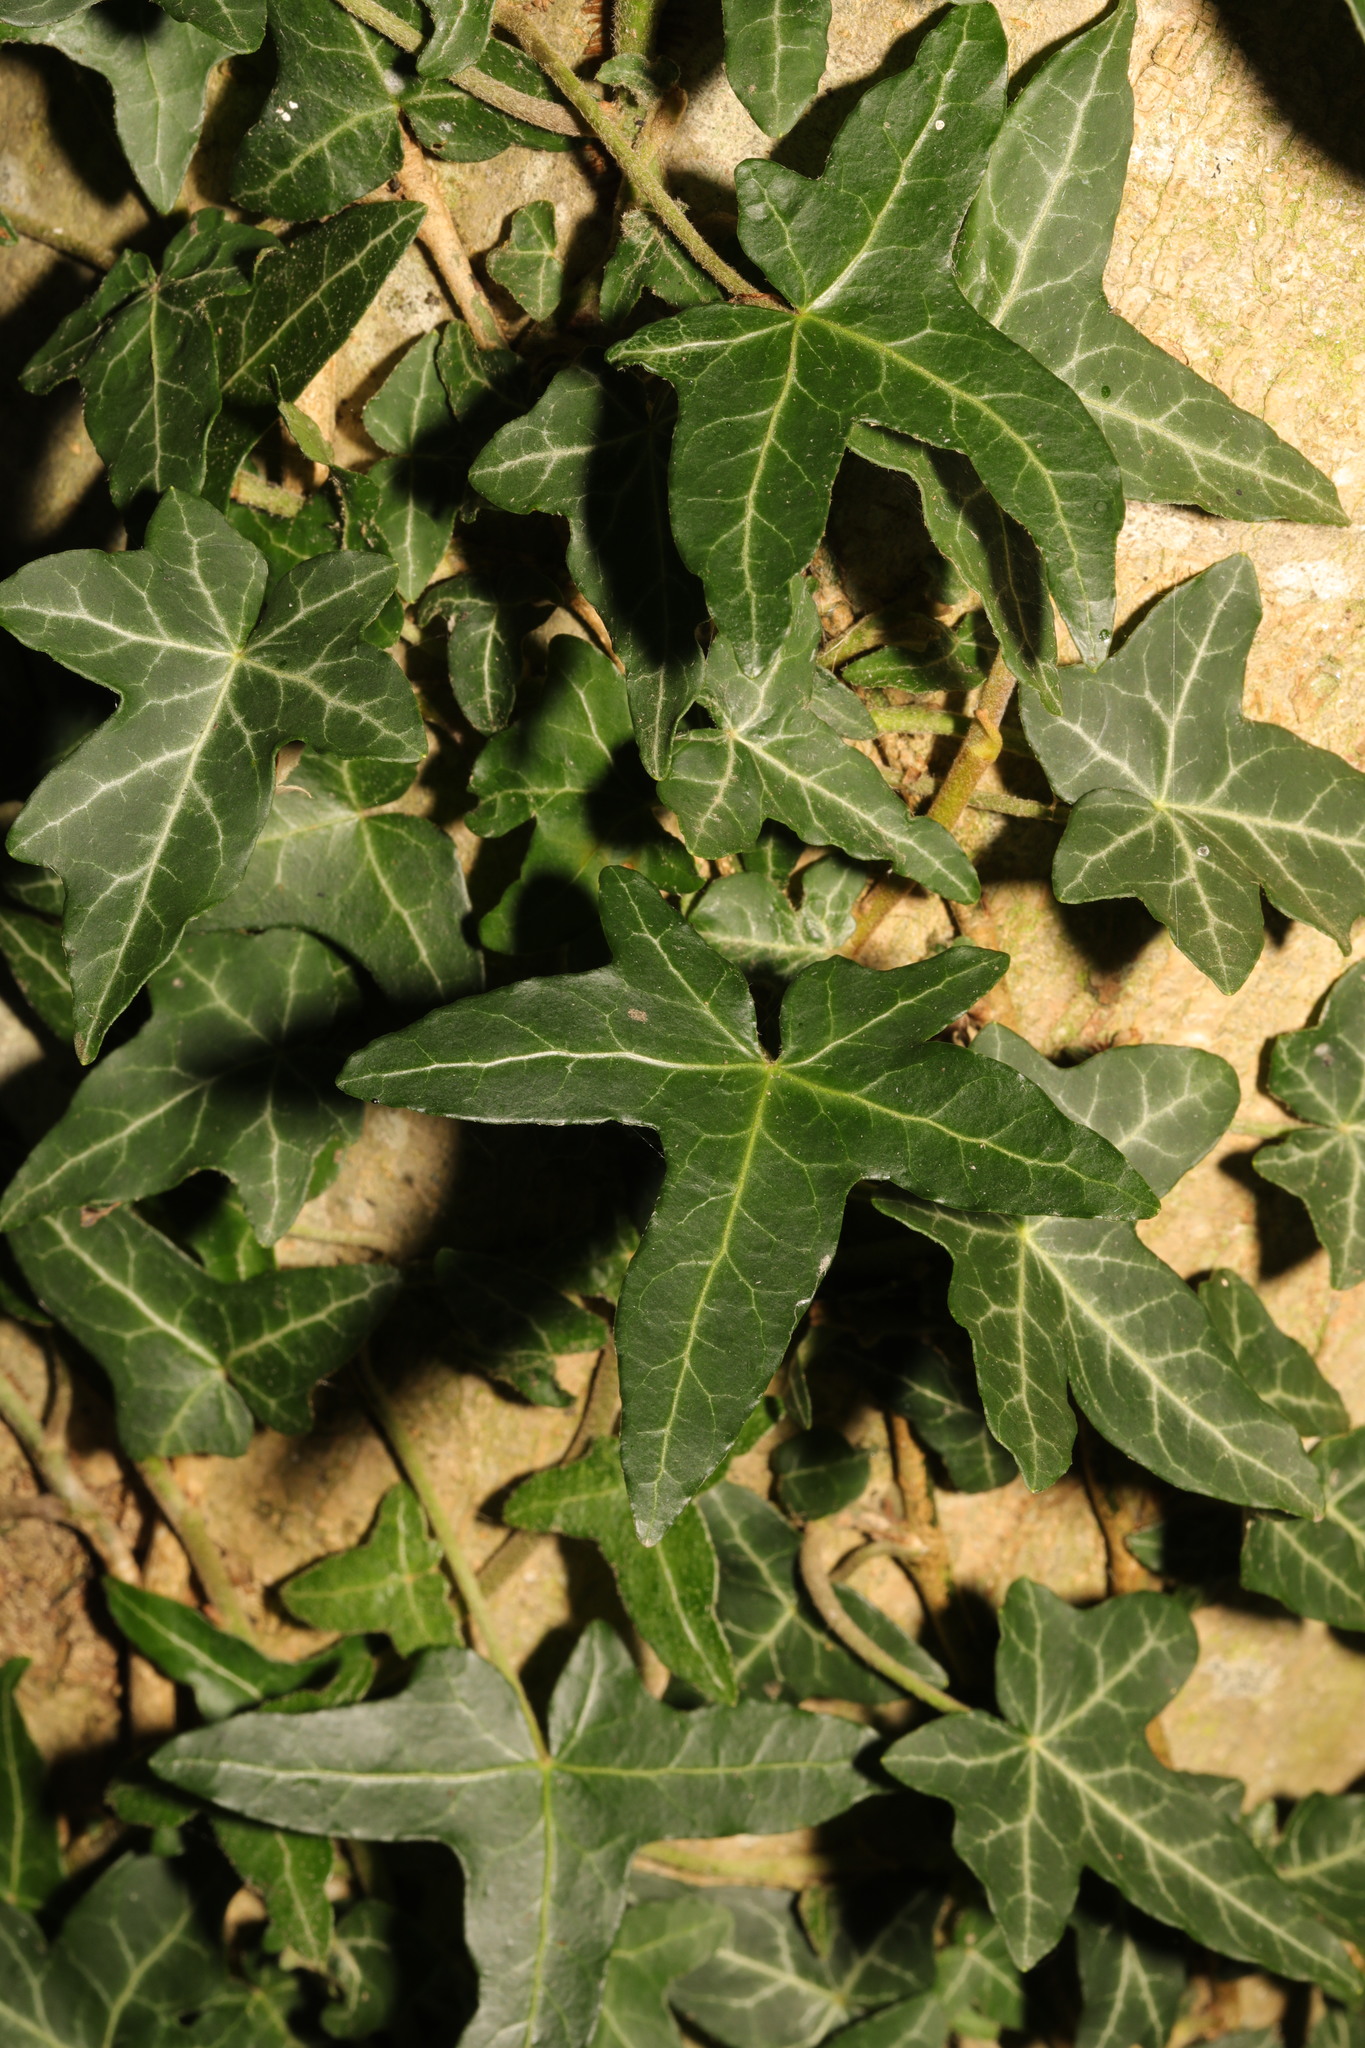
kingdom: Plantae
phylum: Tracheophyta
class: Magnoliopsida
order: Apiales
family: Araliaceae
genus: Hedera
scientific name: Hedera helix
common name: Ivy
